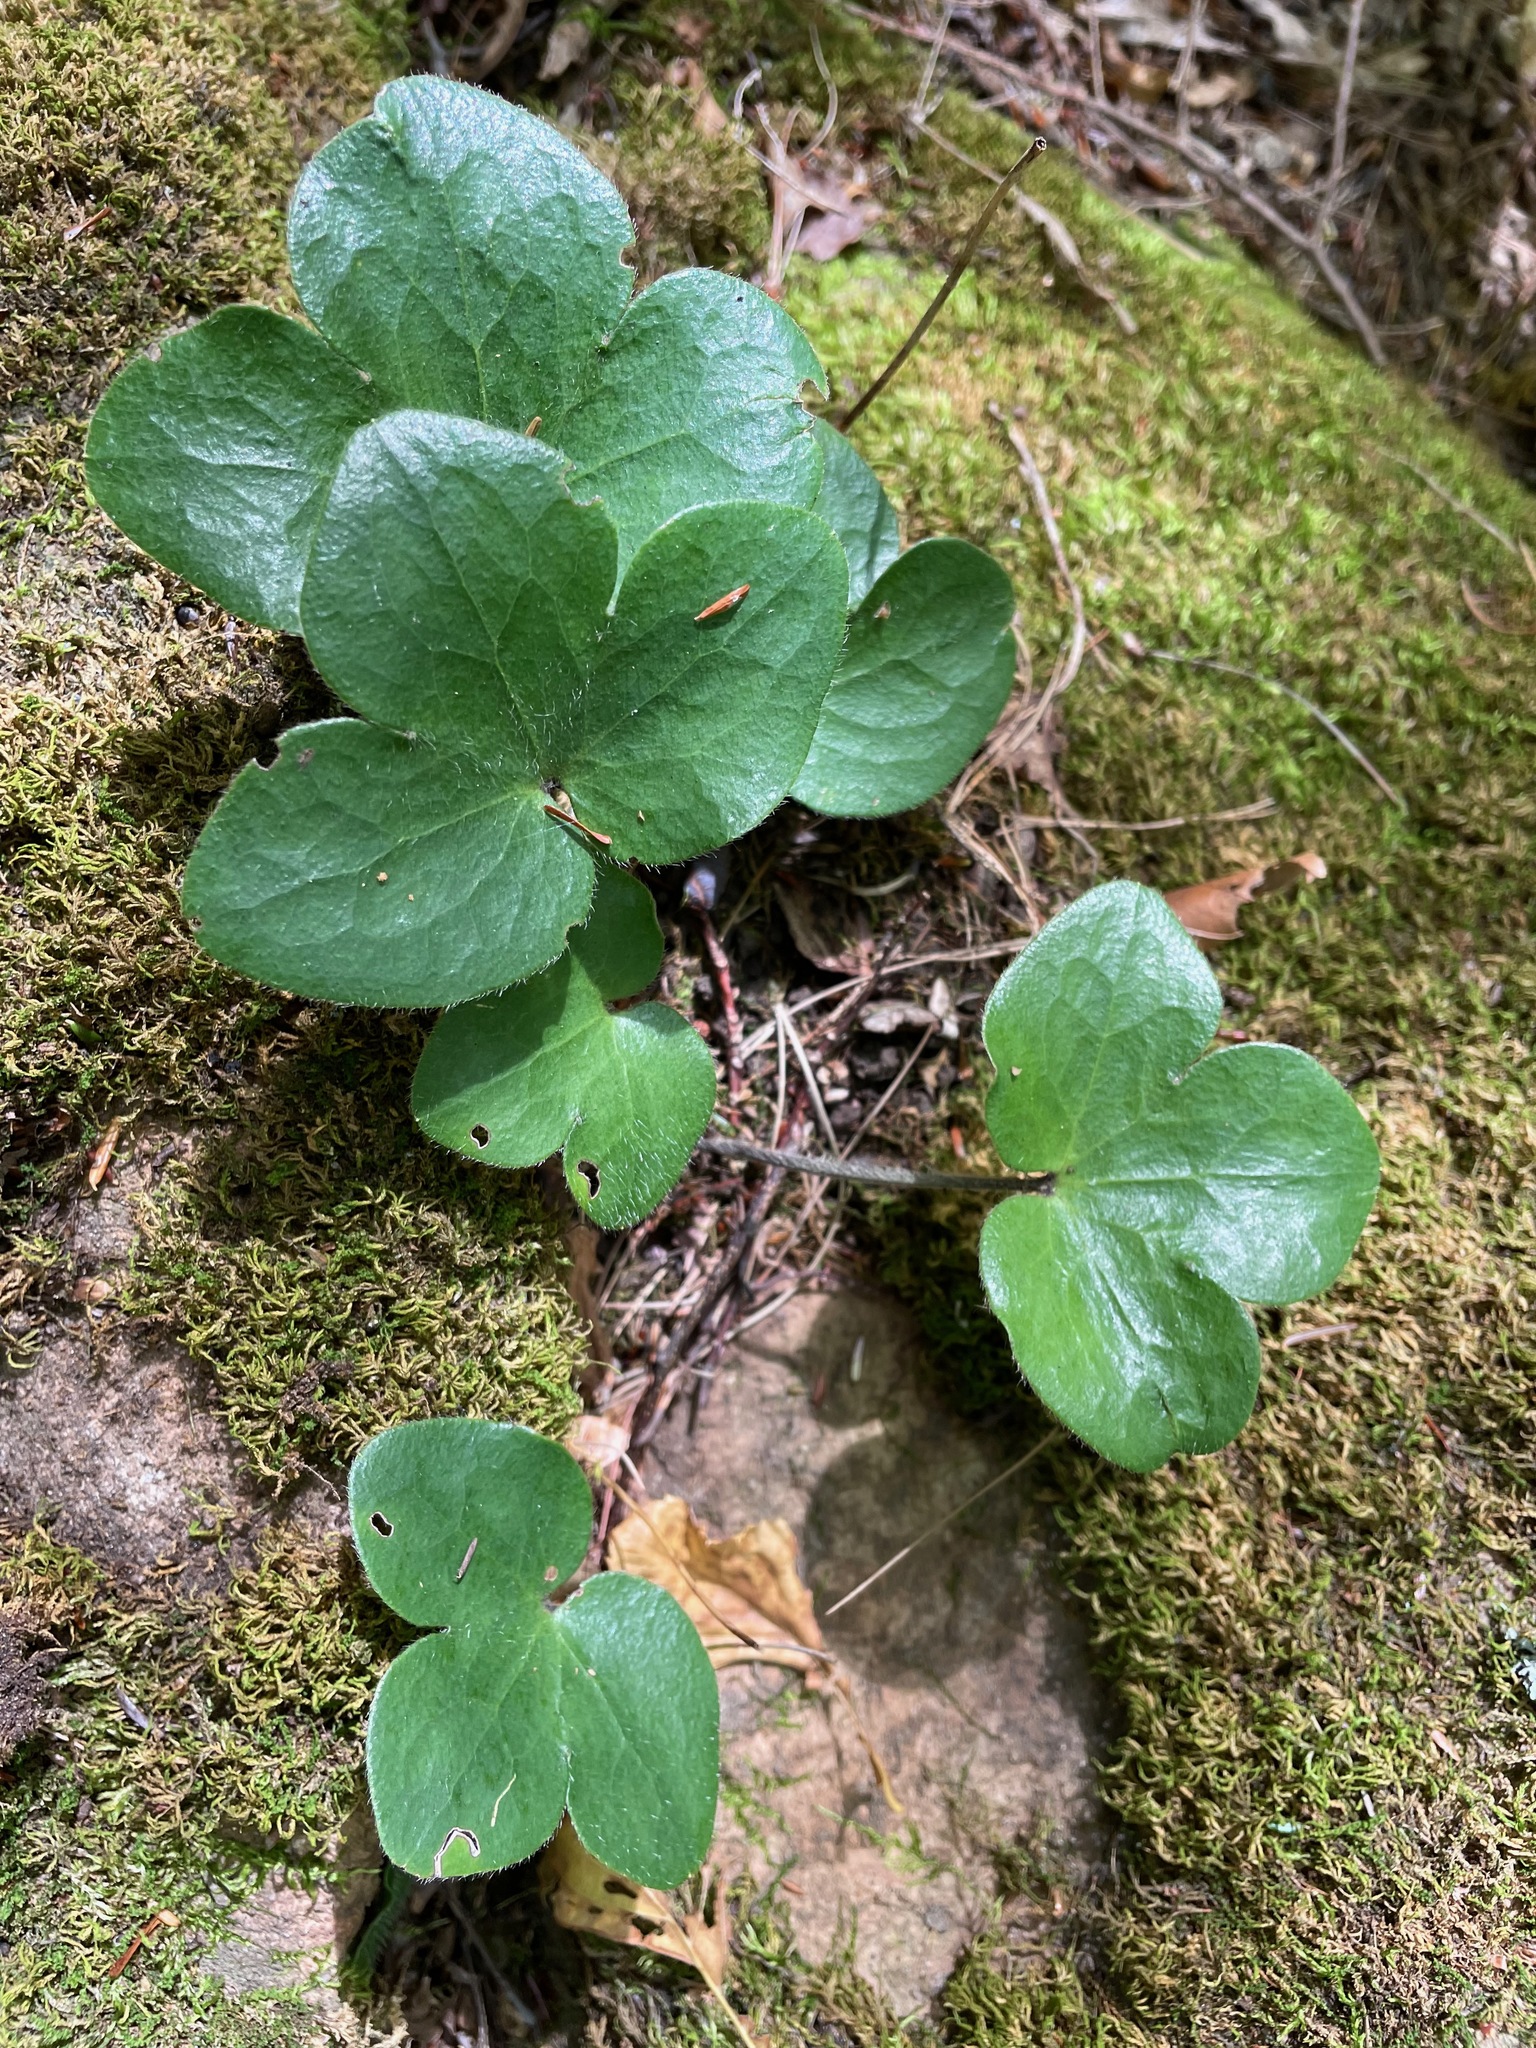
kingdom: Plantae
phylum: Tracheophyta
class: Magnoliopsida
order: Ranunculales
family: Ranunculaceae
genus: Hepatica
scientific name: Hepatica americana
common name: American hepatica
